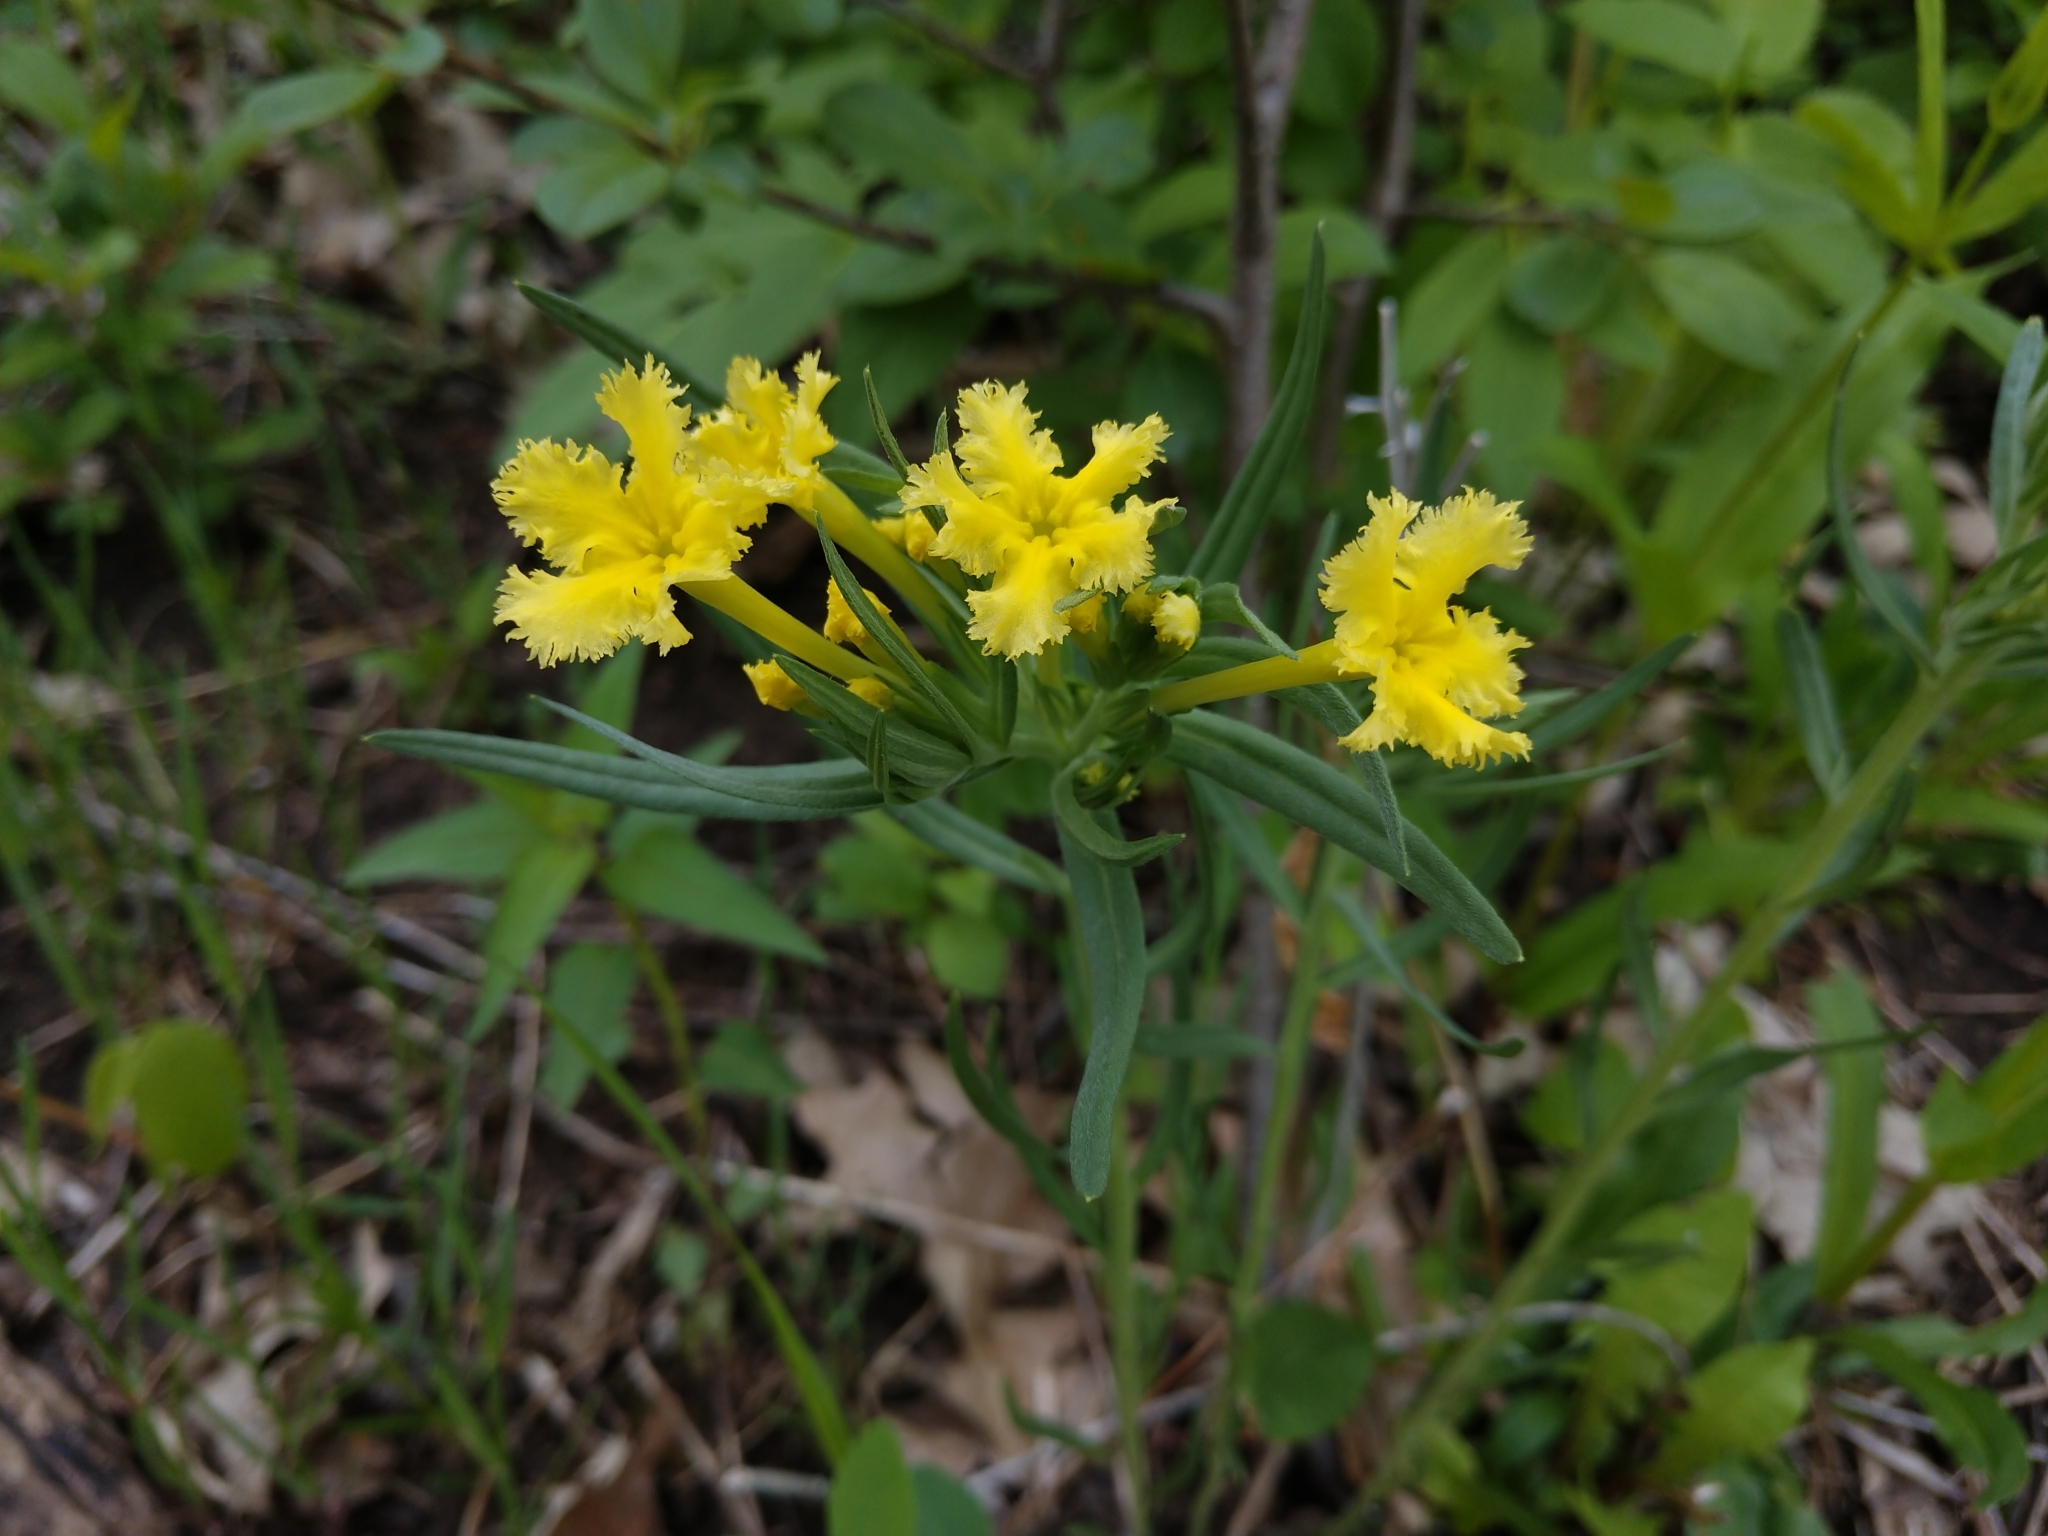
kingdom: Plantae
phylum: Tracheophyta
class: Magnoliopsida
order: Boraginales
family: Boraginaceae
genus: Lithospermum
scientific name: Lithospermum incisum
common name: Fringed gromwell
